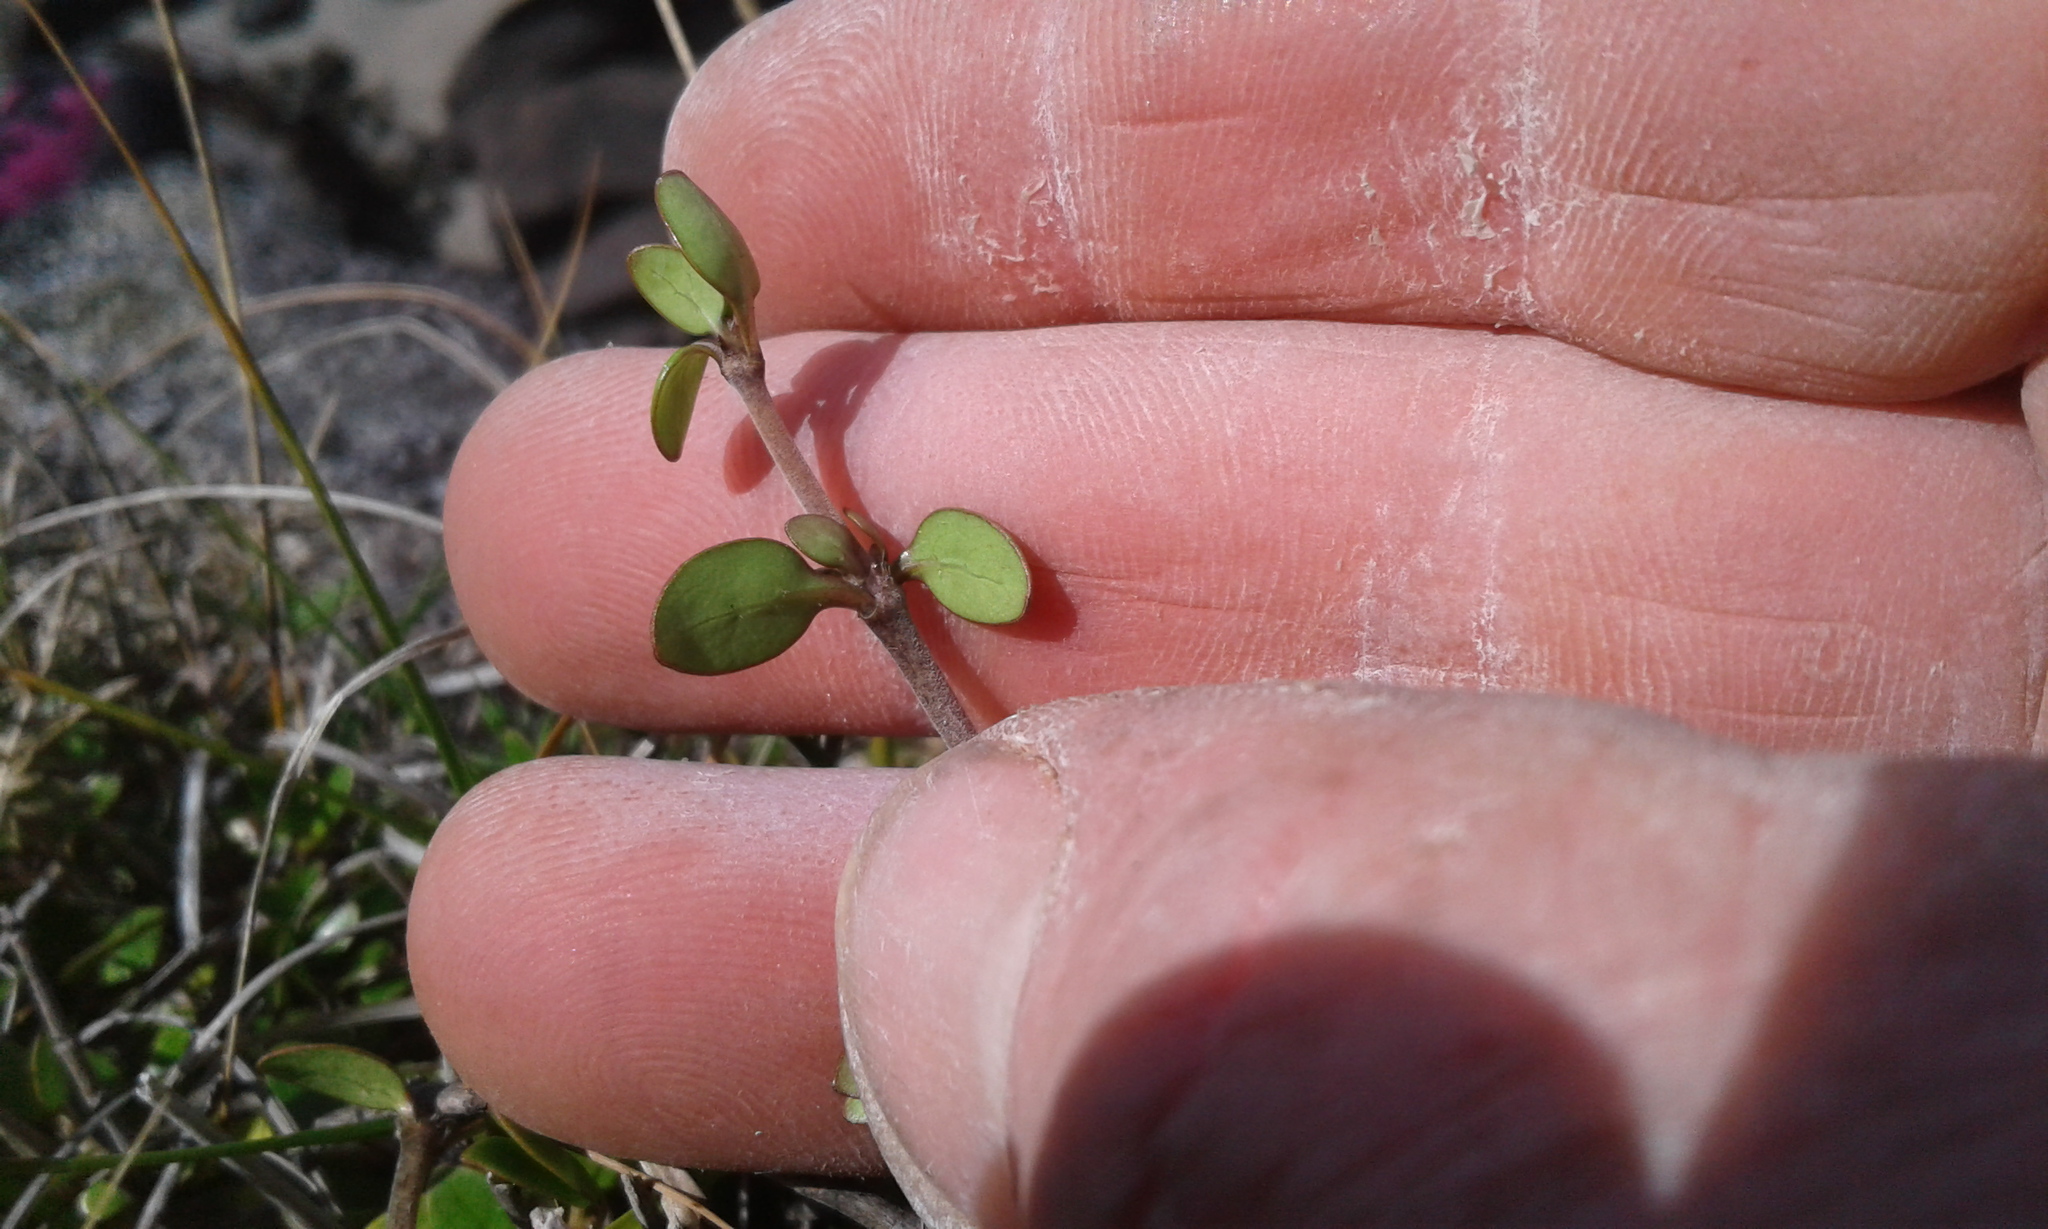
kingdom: Plantae
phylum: Tracheophyta
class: Magnoliopsida
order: Gentianales
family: Rubiaceae
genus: Coprosma
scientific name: Coprosma
